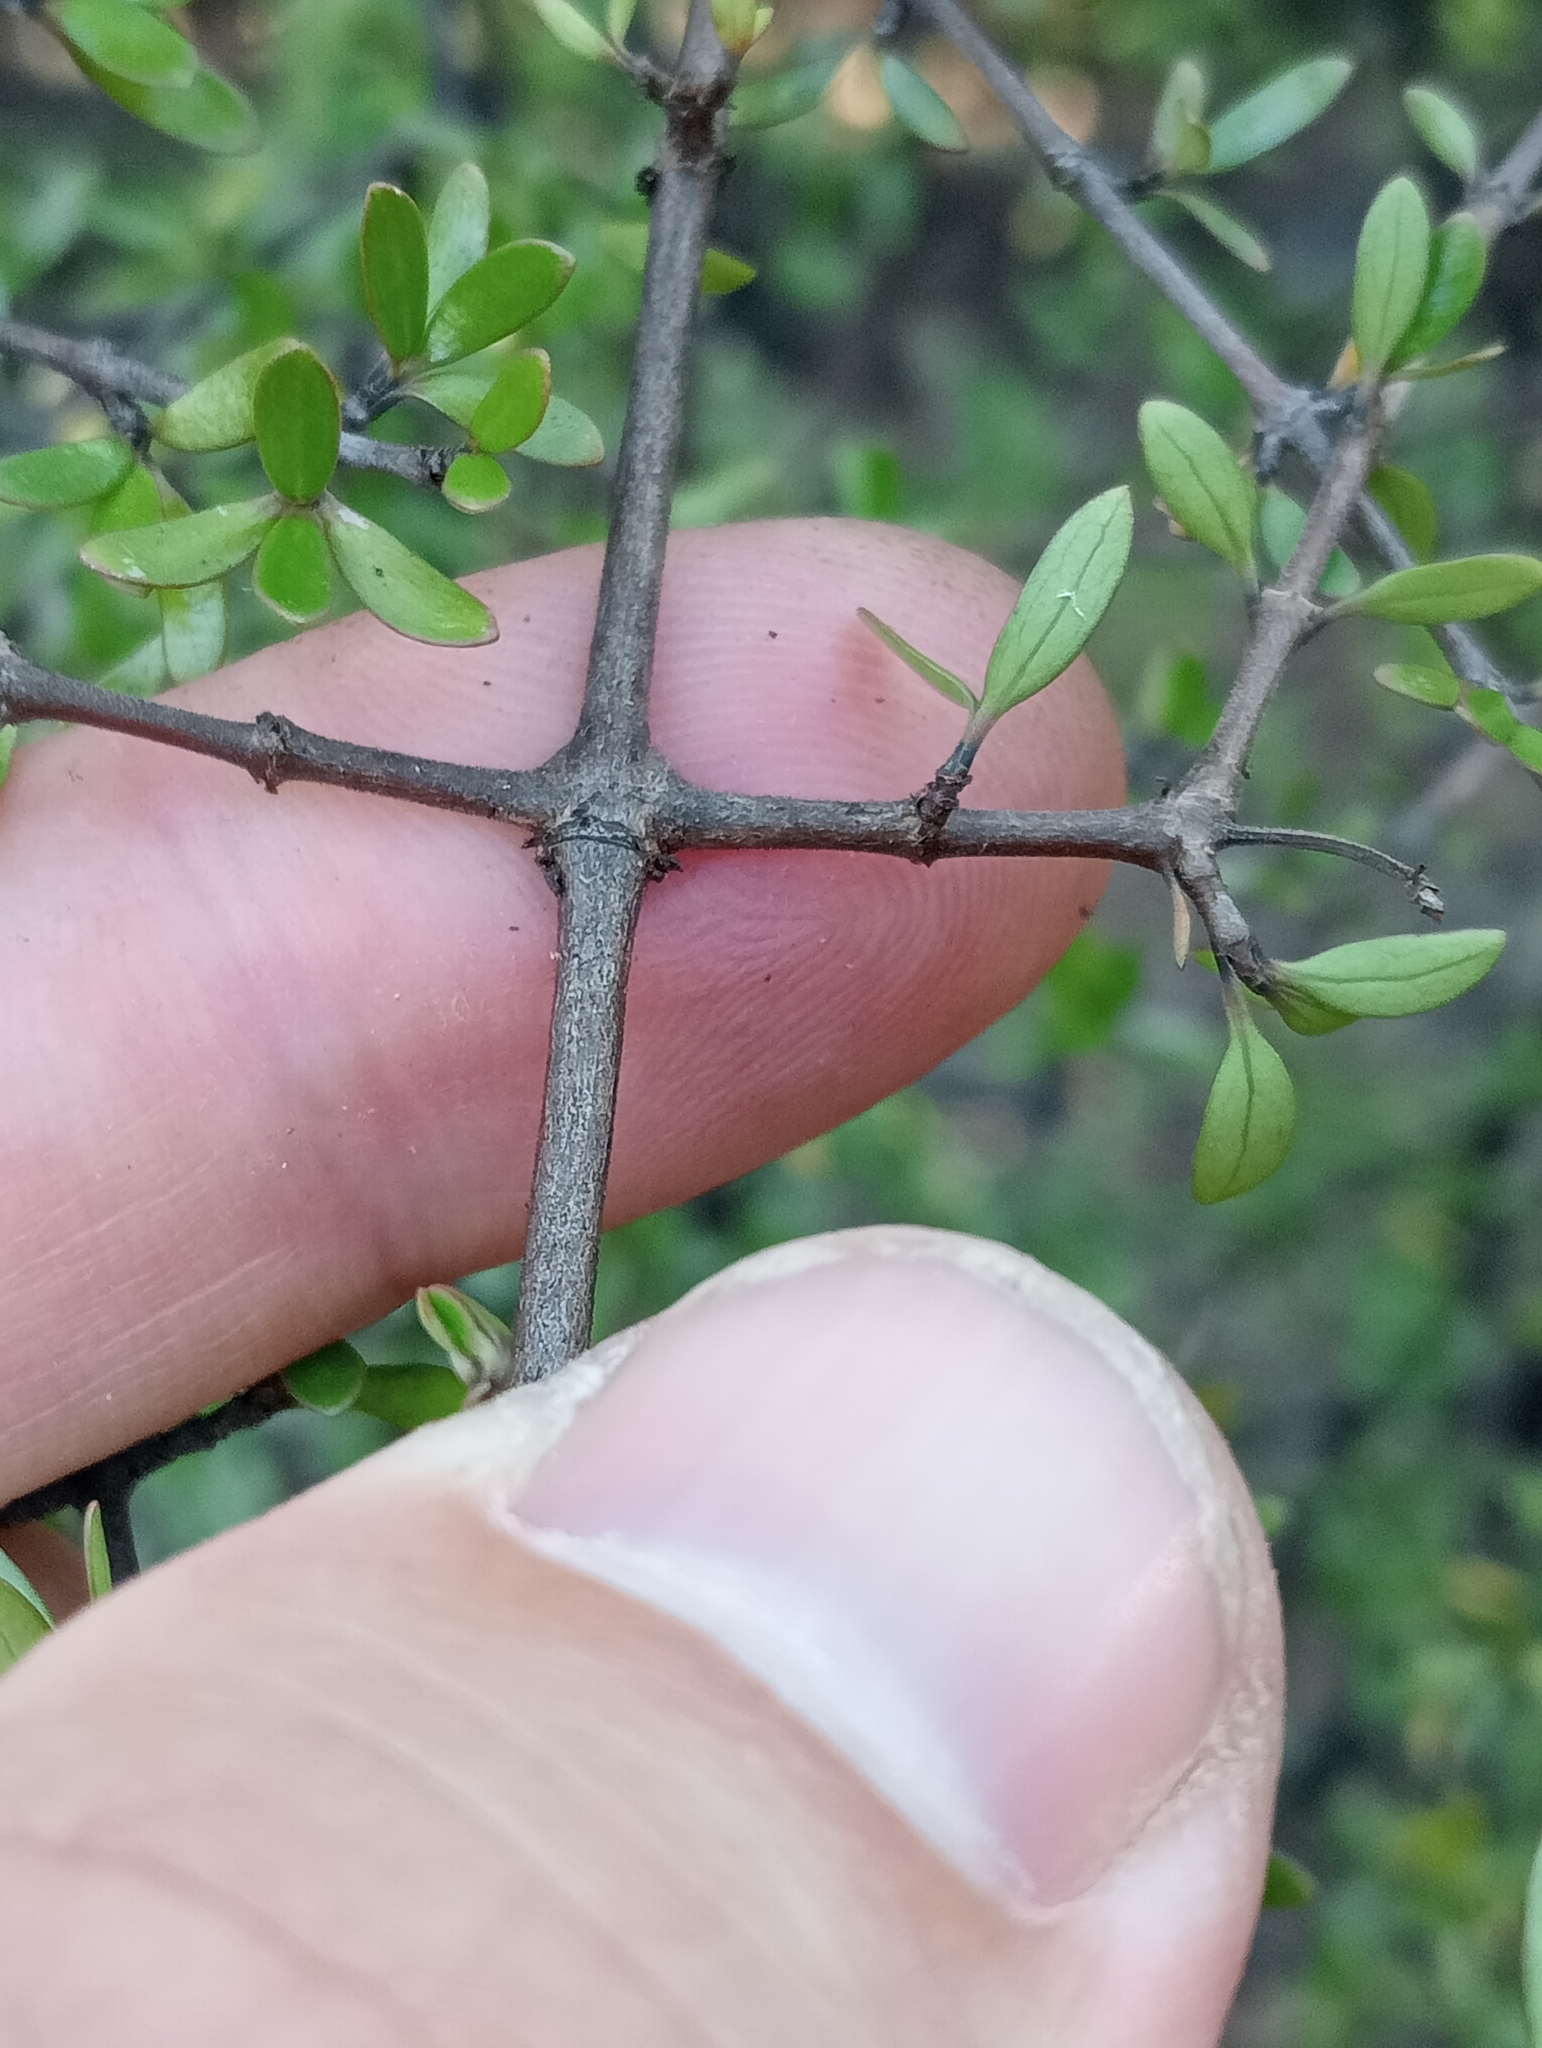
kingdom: Plantae
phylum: Tracheophyta
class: Magnoliopsida
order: Gentianales
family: Rubiaceae
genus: Coprosma
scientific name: Coprosma propinqua
